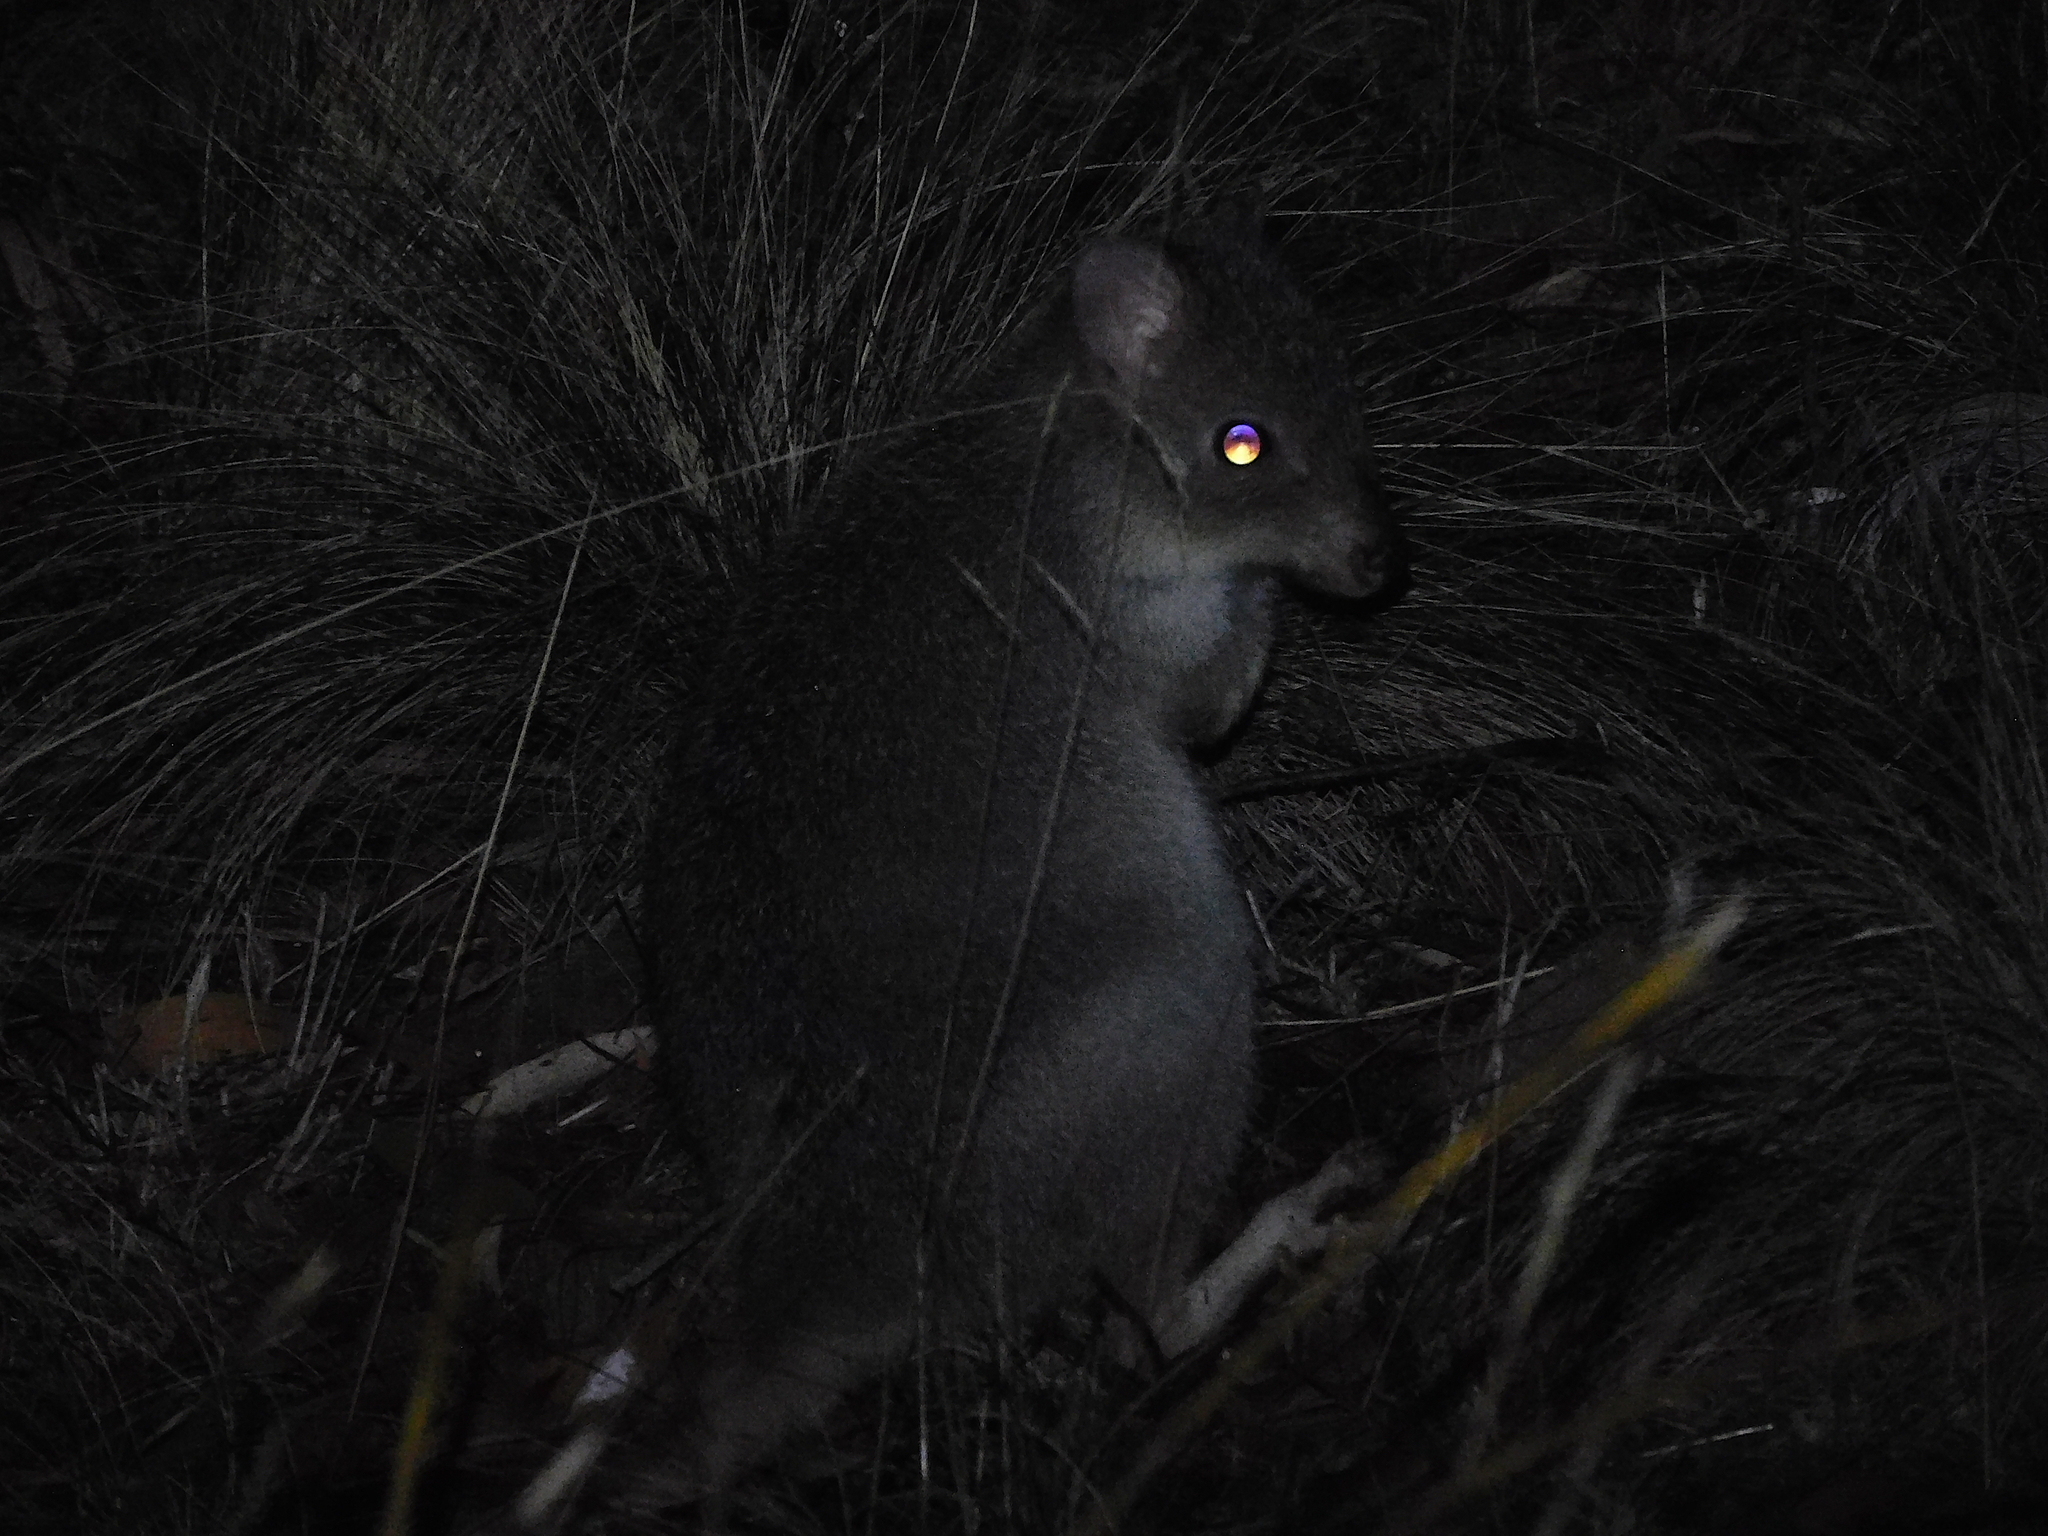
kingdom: Animalia
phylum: Chordata
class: Mammalia
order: Diprotodontia
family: Potoroidae
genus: Bettongia
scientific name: Bettongia gaimardi
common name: Eastern bettong
